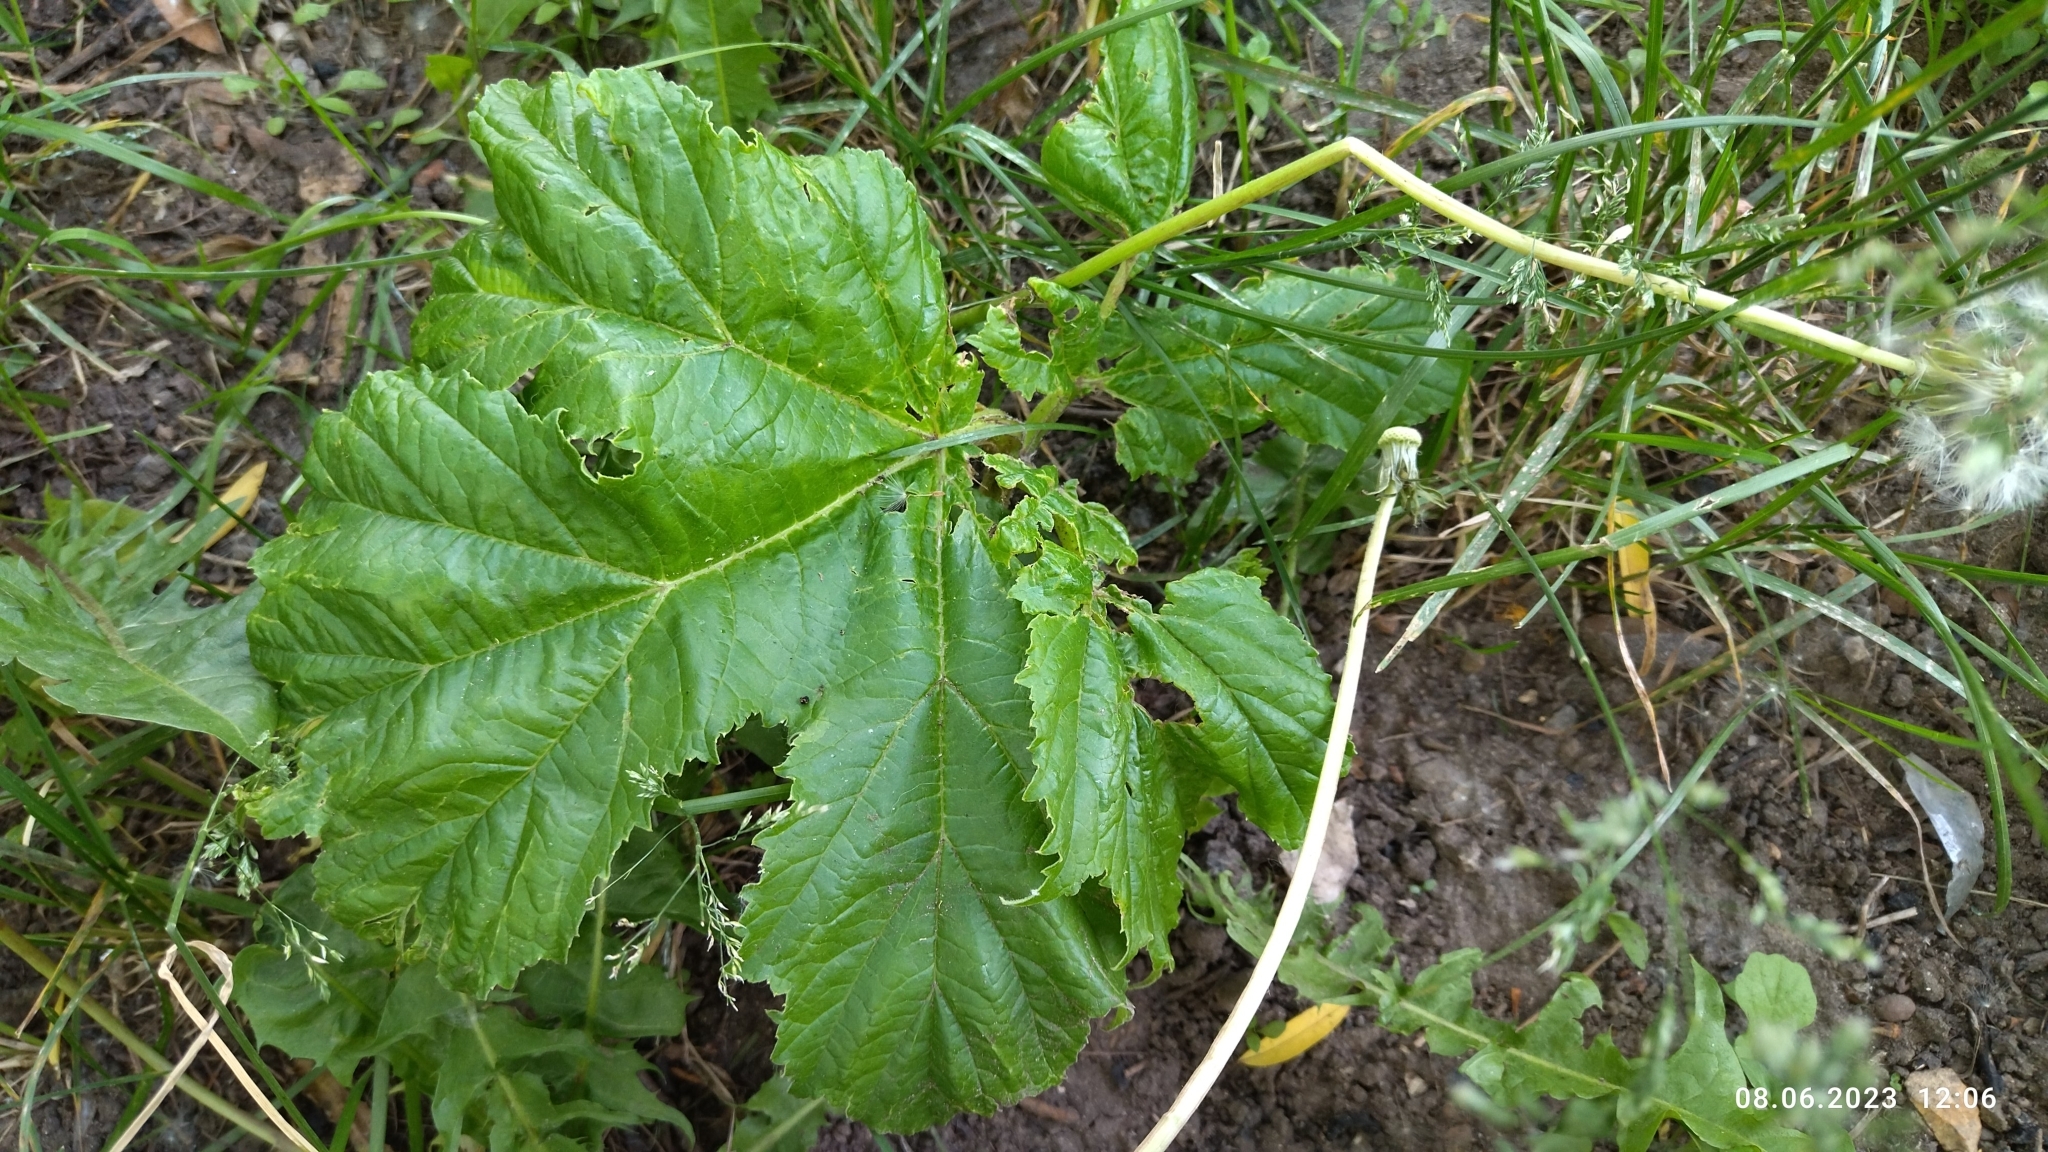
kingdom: Plantae
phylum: Tracheophyta
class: Magnoliopsida
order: Apiales
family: Apiaceae
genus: Heracleum
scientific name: Heracleum sosnowskyi
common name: Sosnowsky's hogweed
